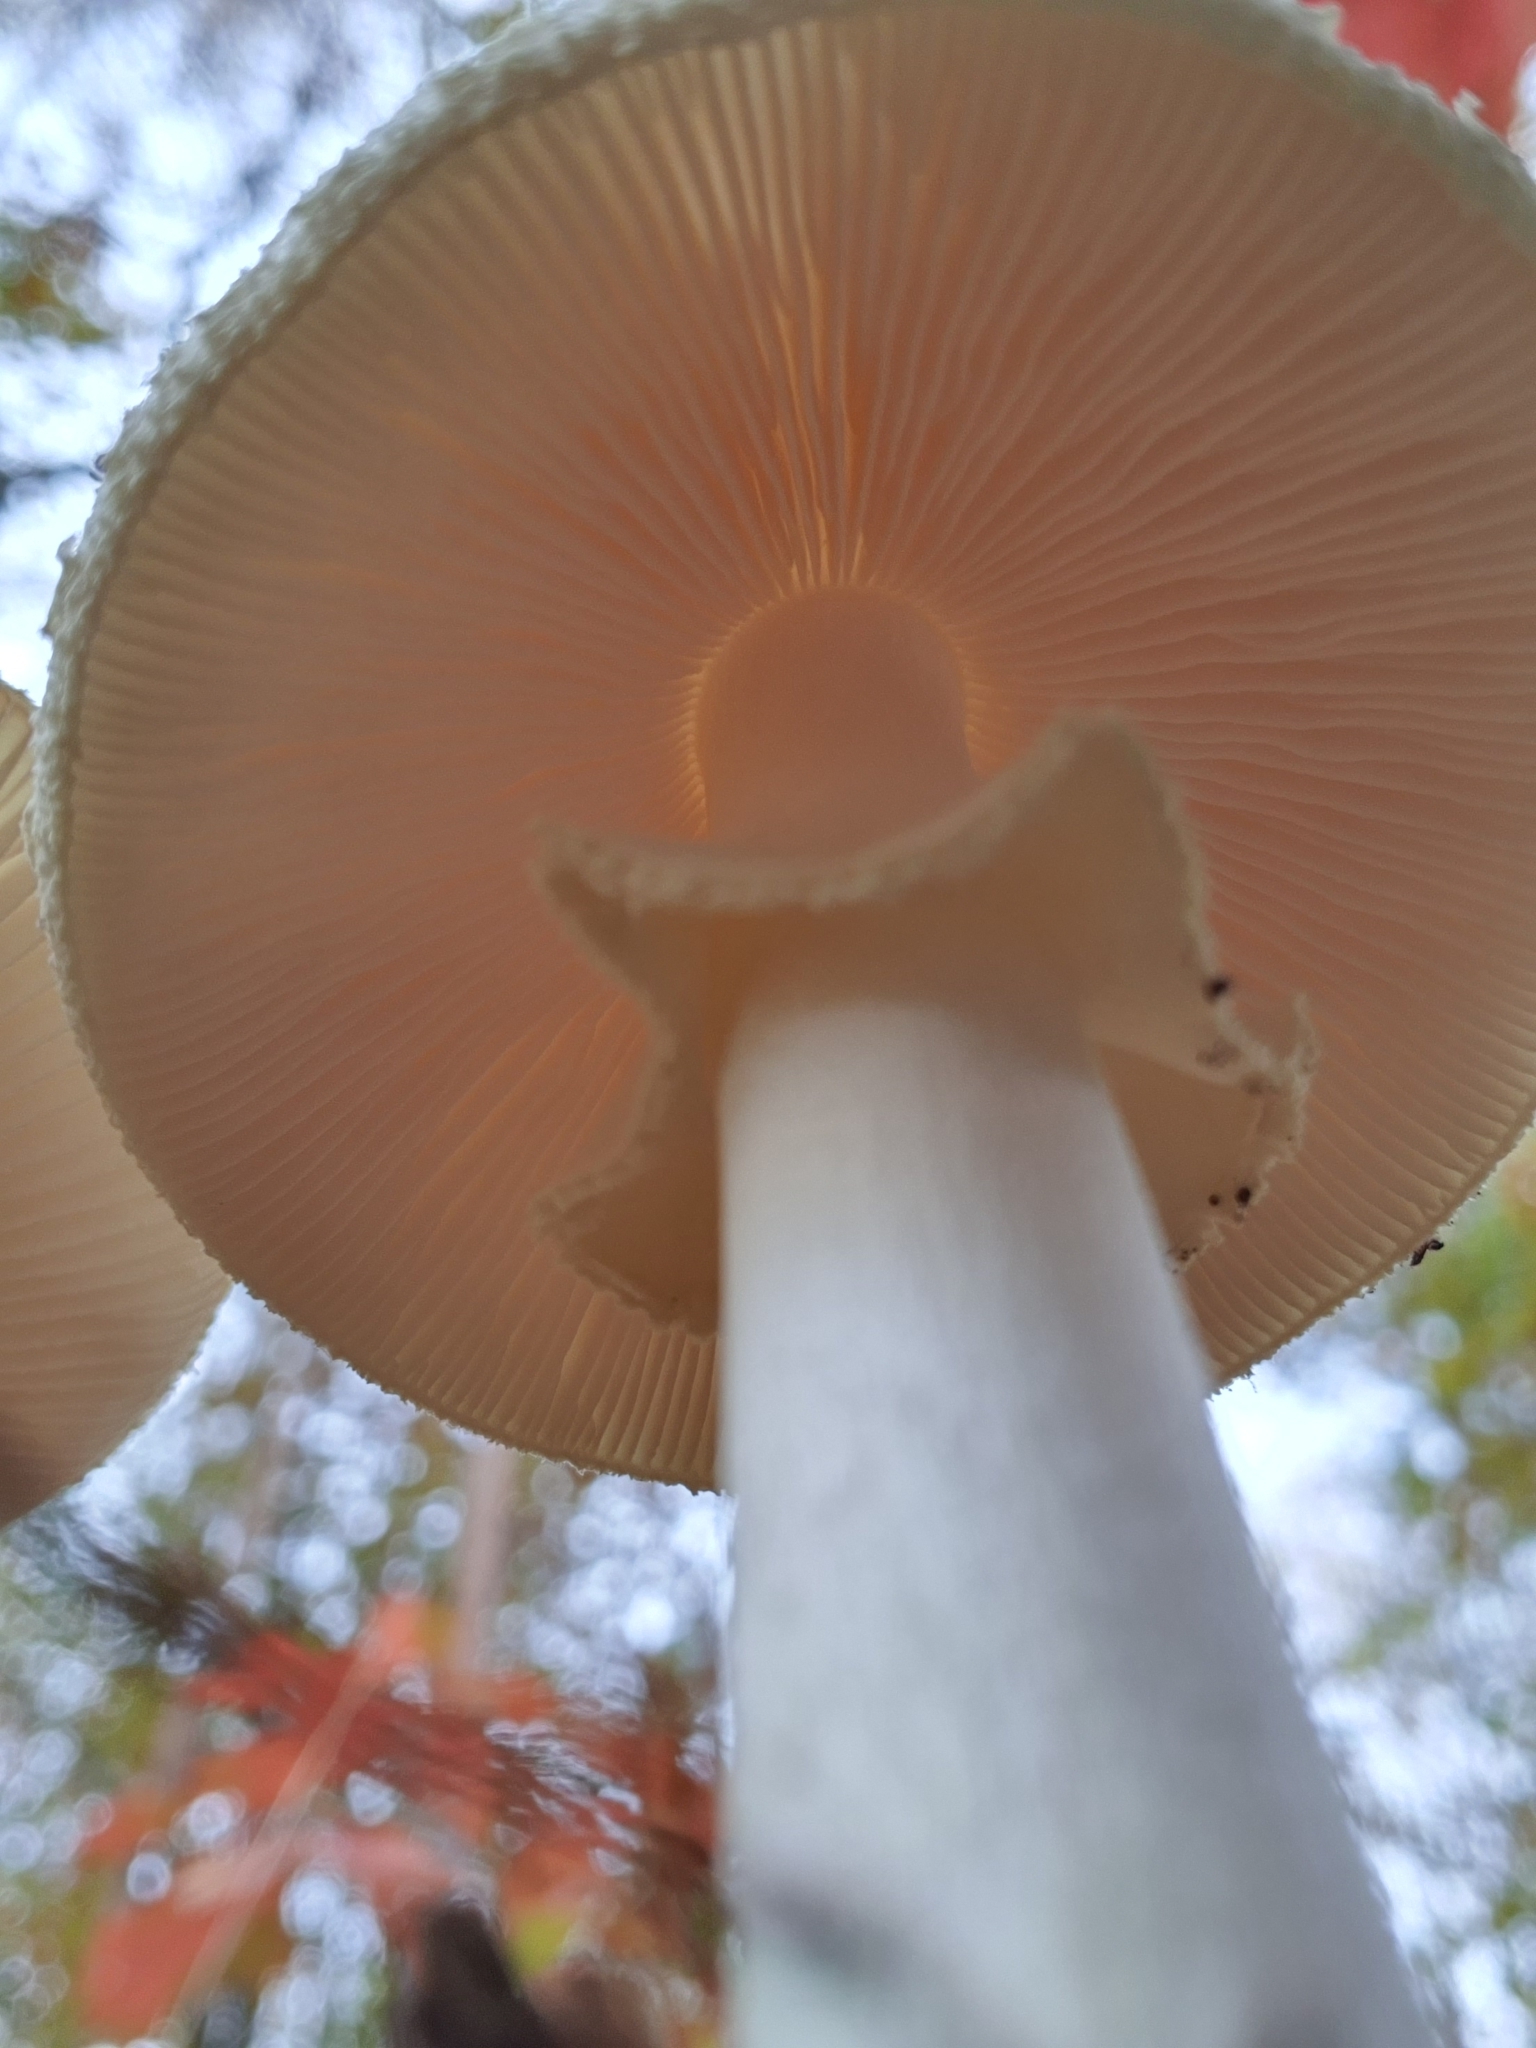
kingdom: Fungi
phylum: Basidiomycota
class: Agaricomycetes
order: Agaricales
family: Amanitaceae
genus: Amanita
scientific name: Amanita citrina
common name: False death-cap
